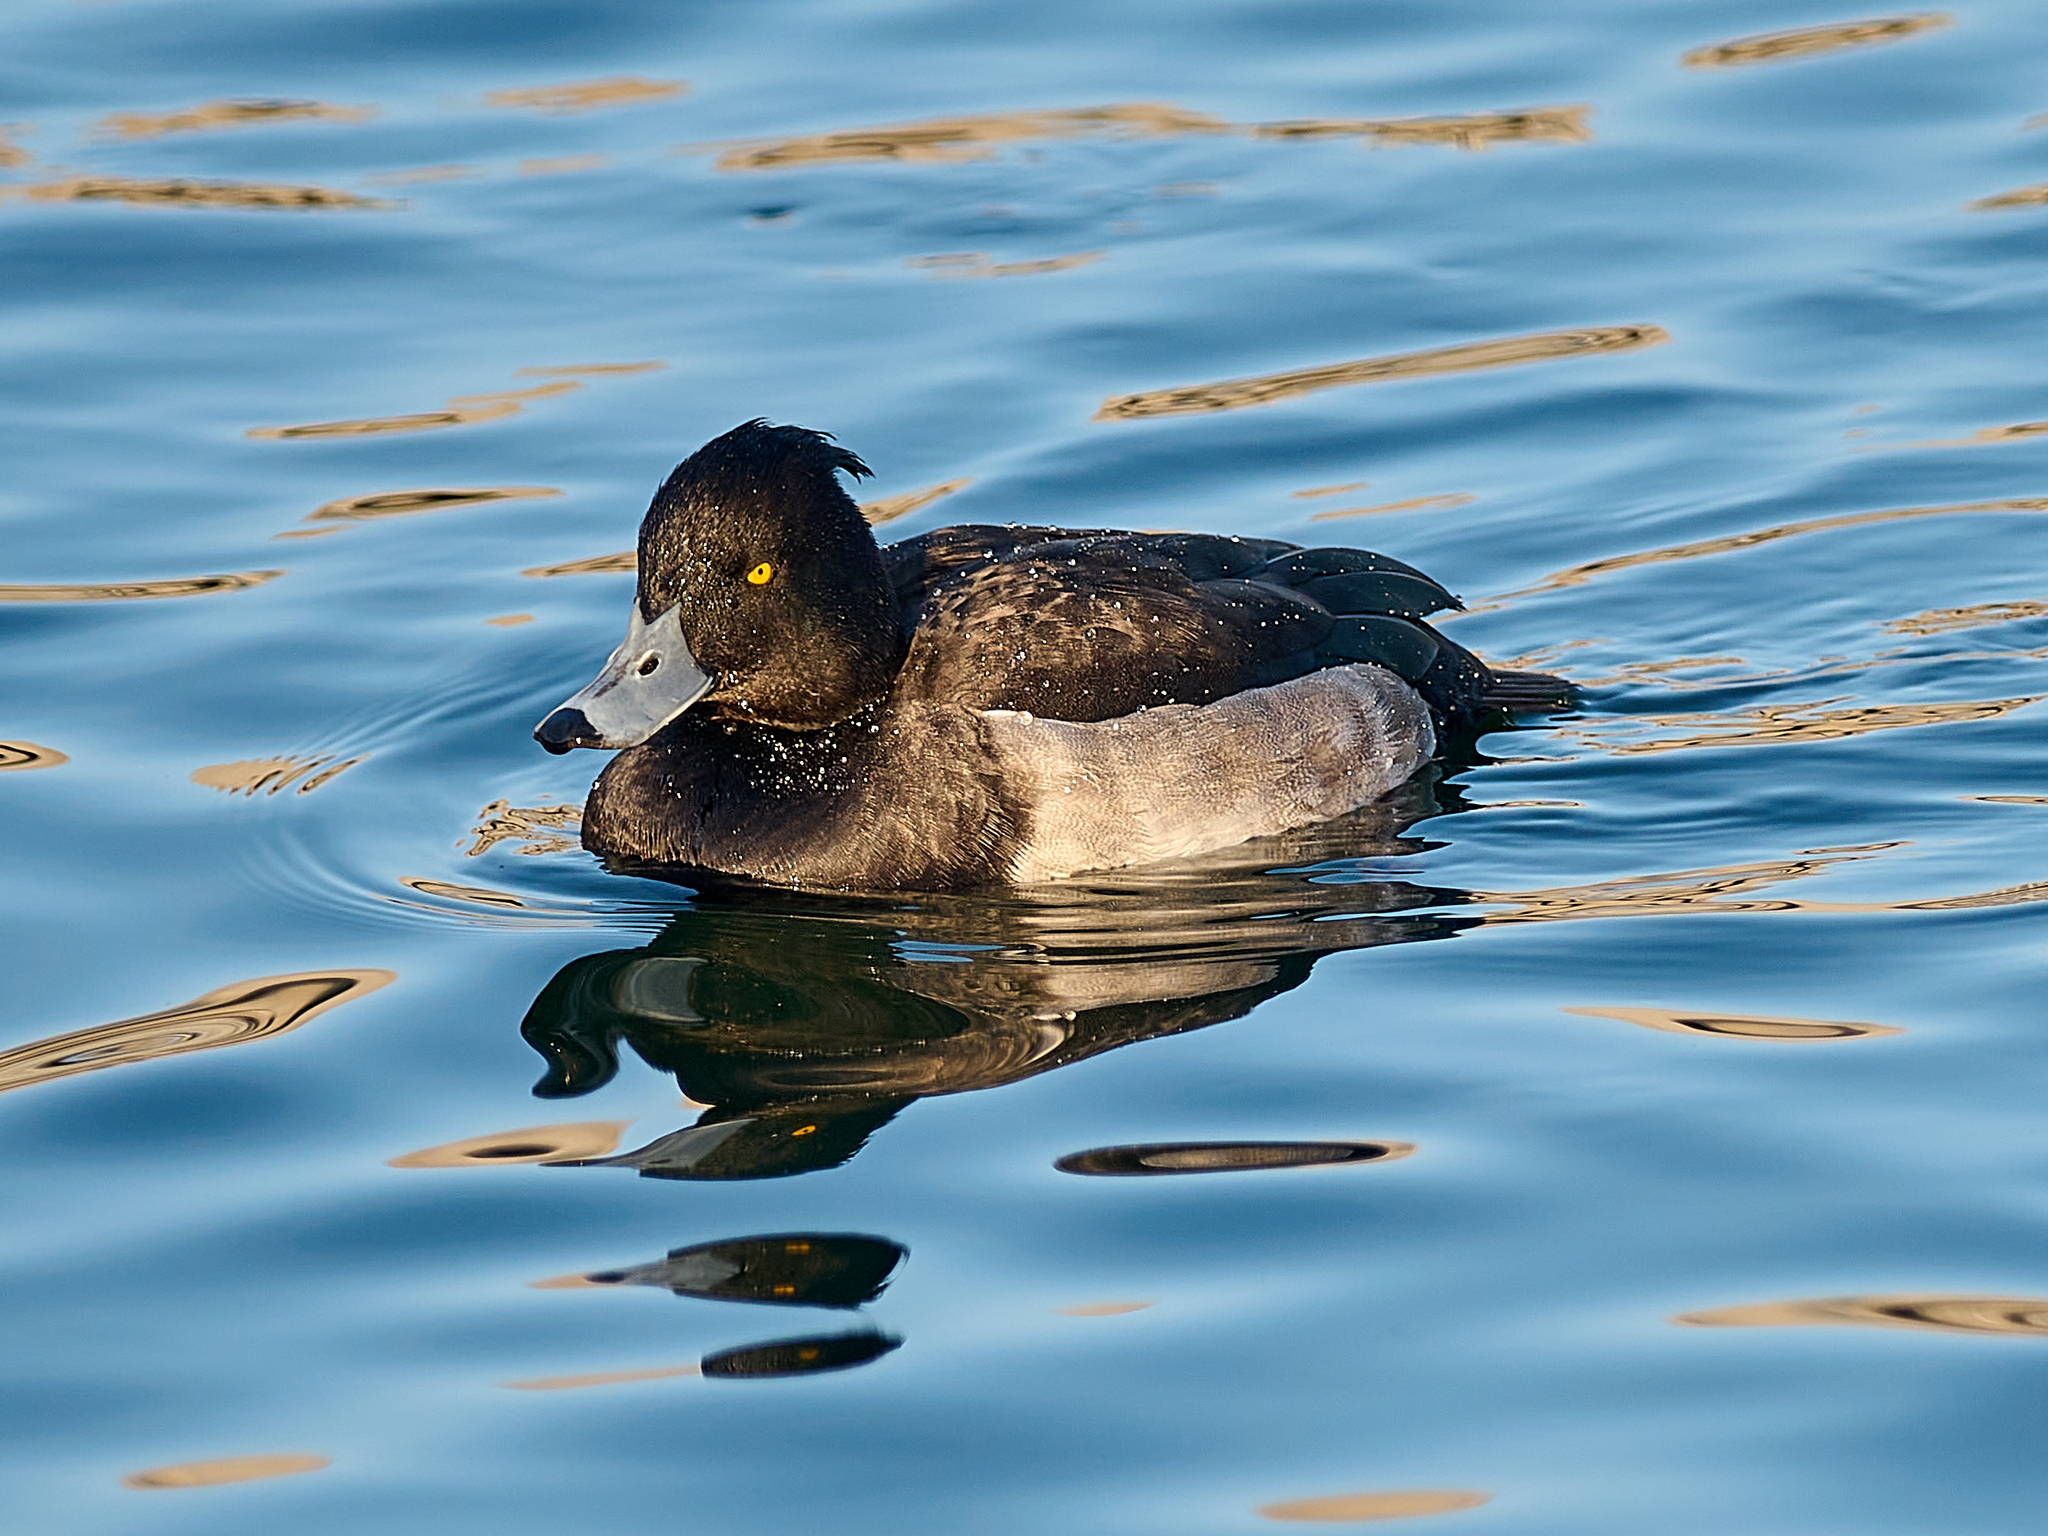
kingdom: Animalia
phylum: Chordata
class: Aves
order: Anseriformes
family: Anatidae
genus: Aythya
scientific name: Aythya fuligula
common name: Tufted duck
